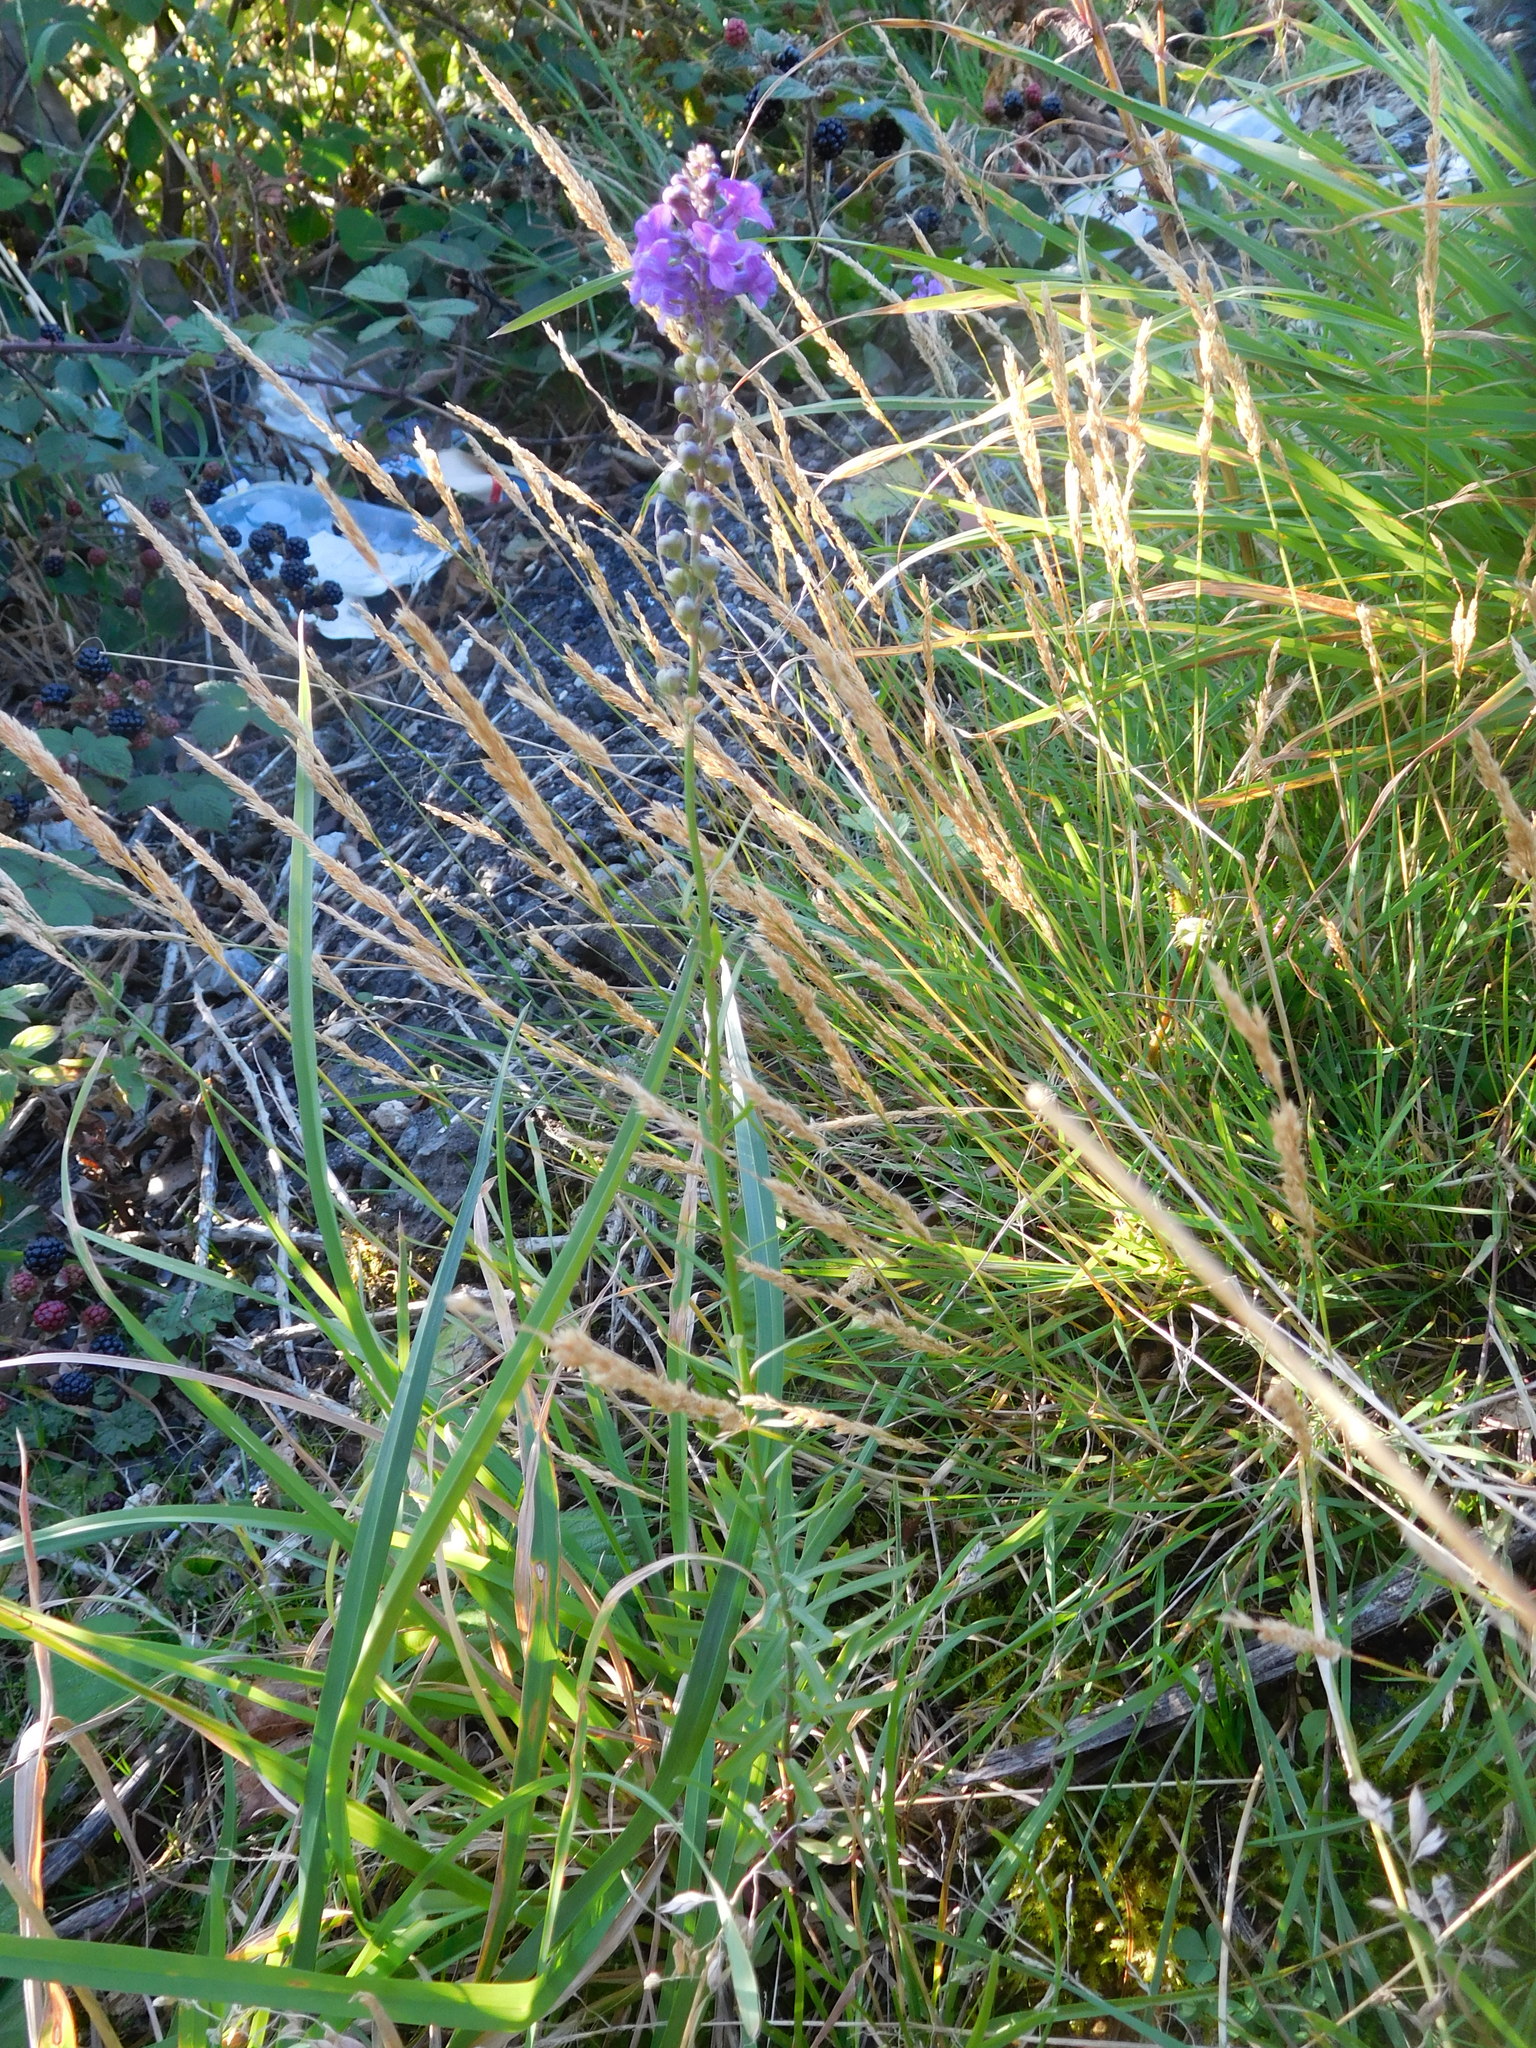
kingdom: Plantae
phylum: Tracheophyta
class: Magnoliopsida
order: Lamiales
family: Plantaginaceae
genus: Linaria
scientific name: Linaria purpurea
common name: Purple toadflax
